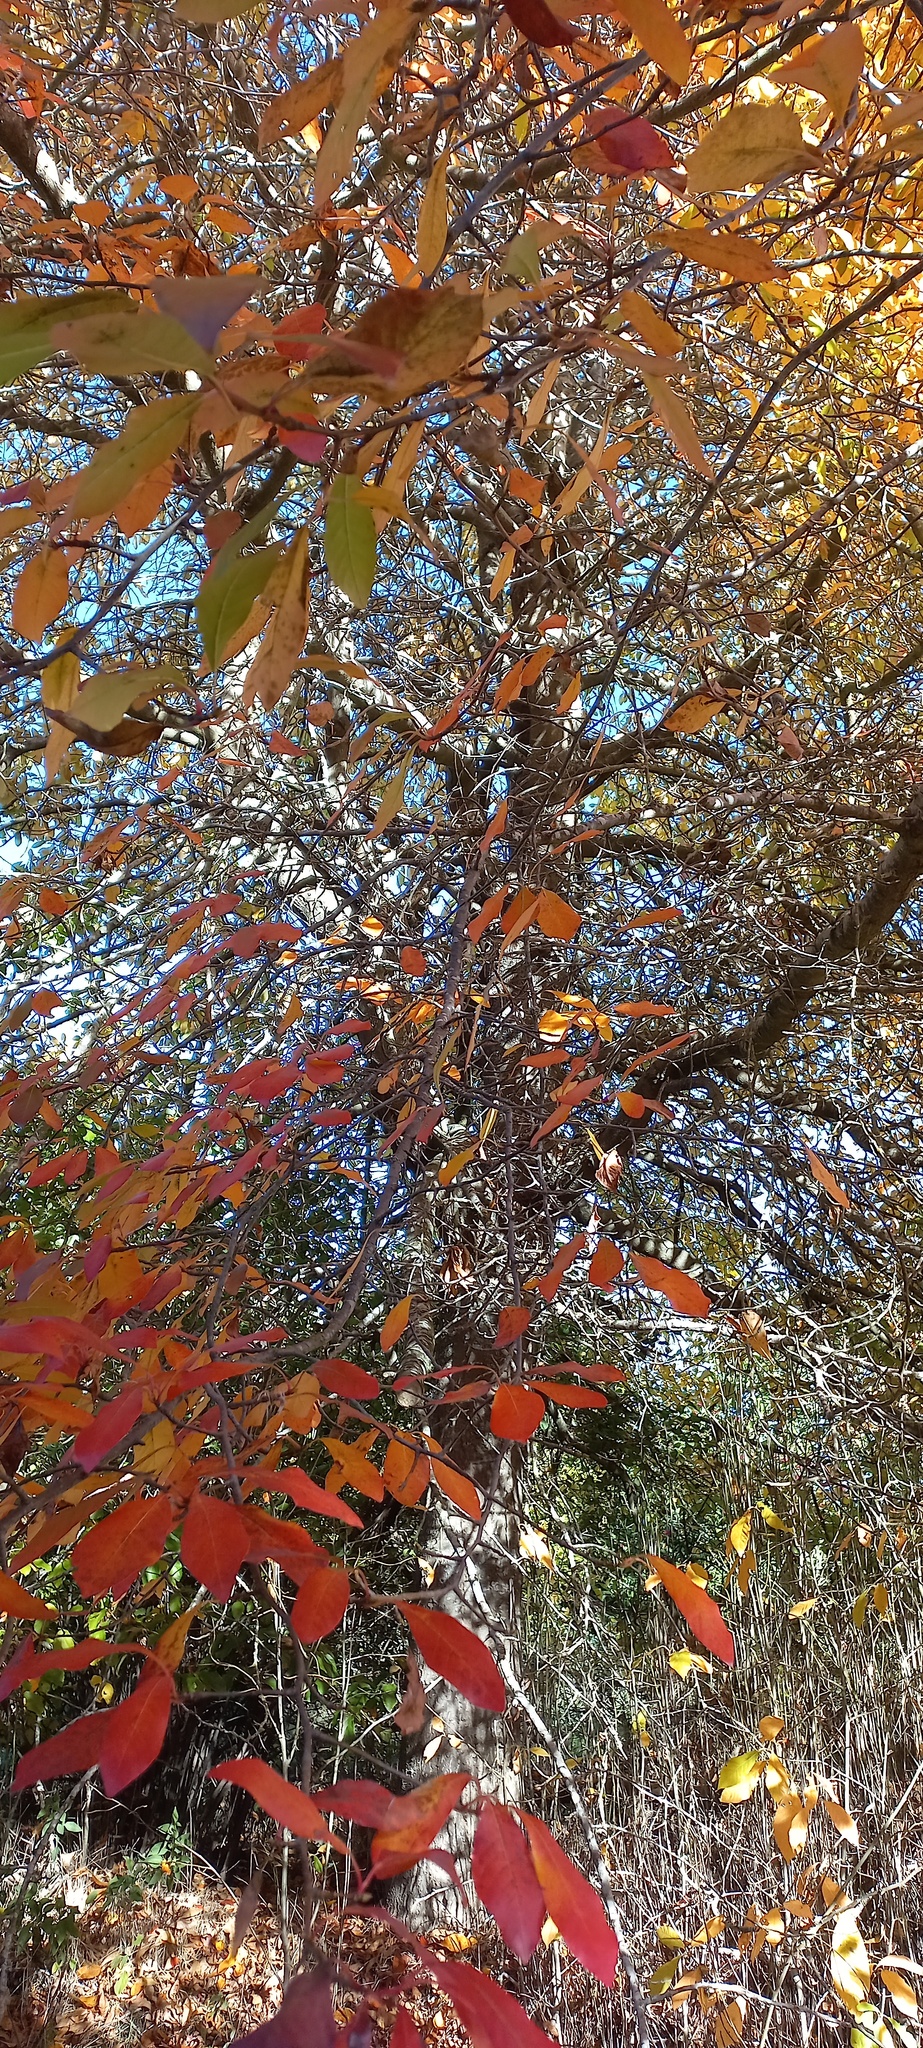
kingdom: Plantae
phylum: Tracheophyta
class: Magnoliopsida
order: Fagales
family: Fagaceae
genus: Fagus
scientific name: Fagus sylvatica
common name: Beech
